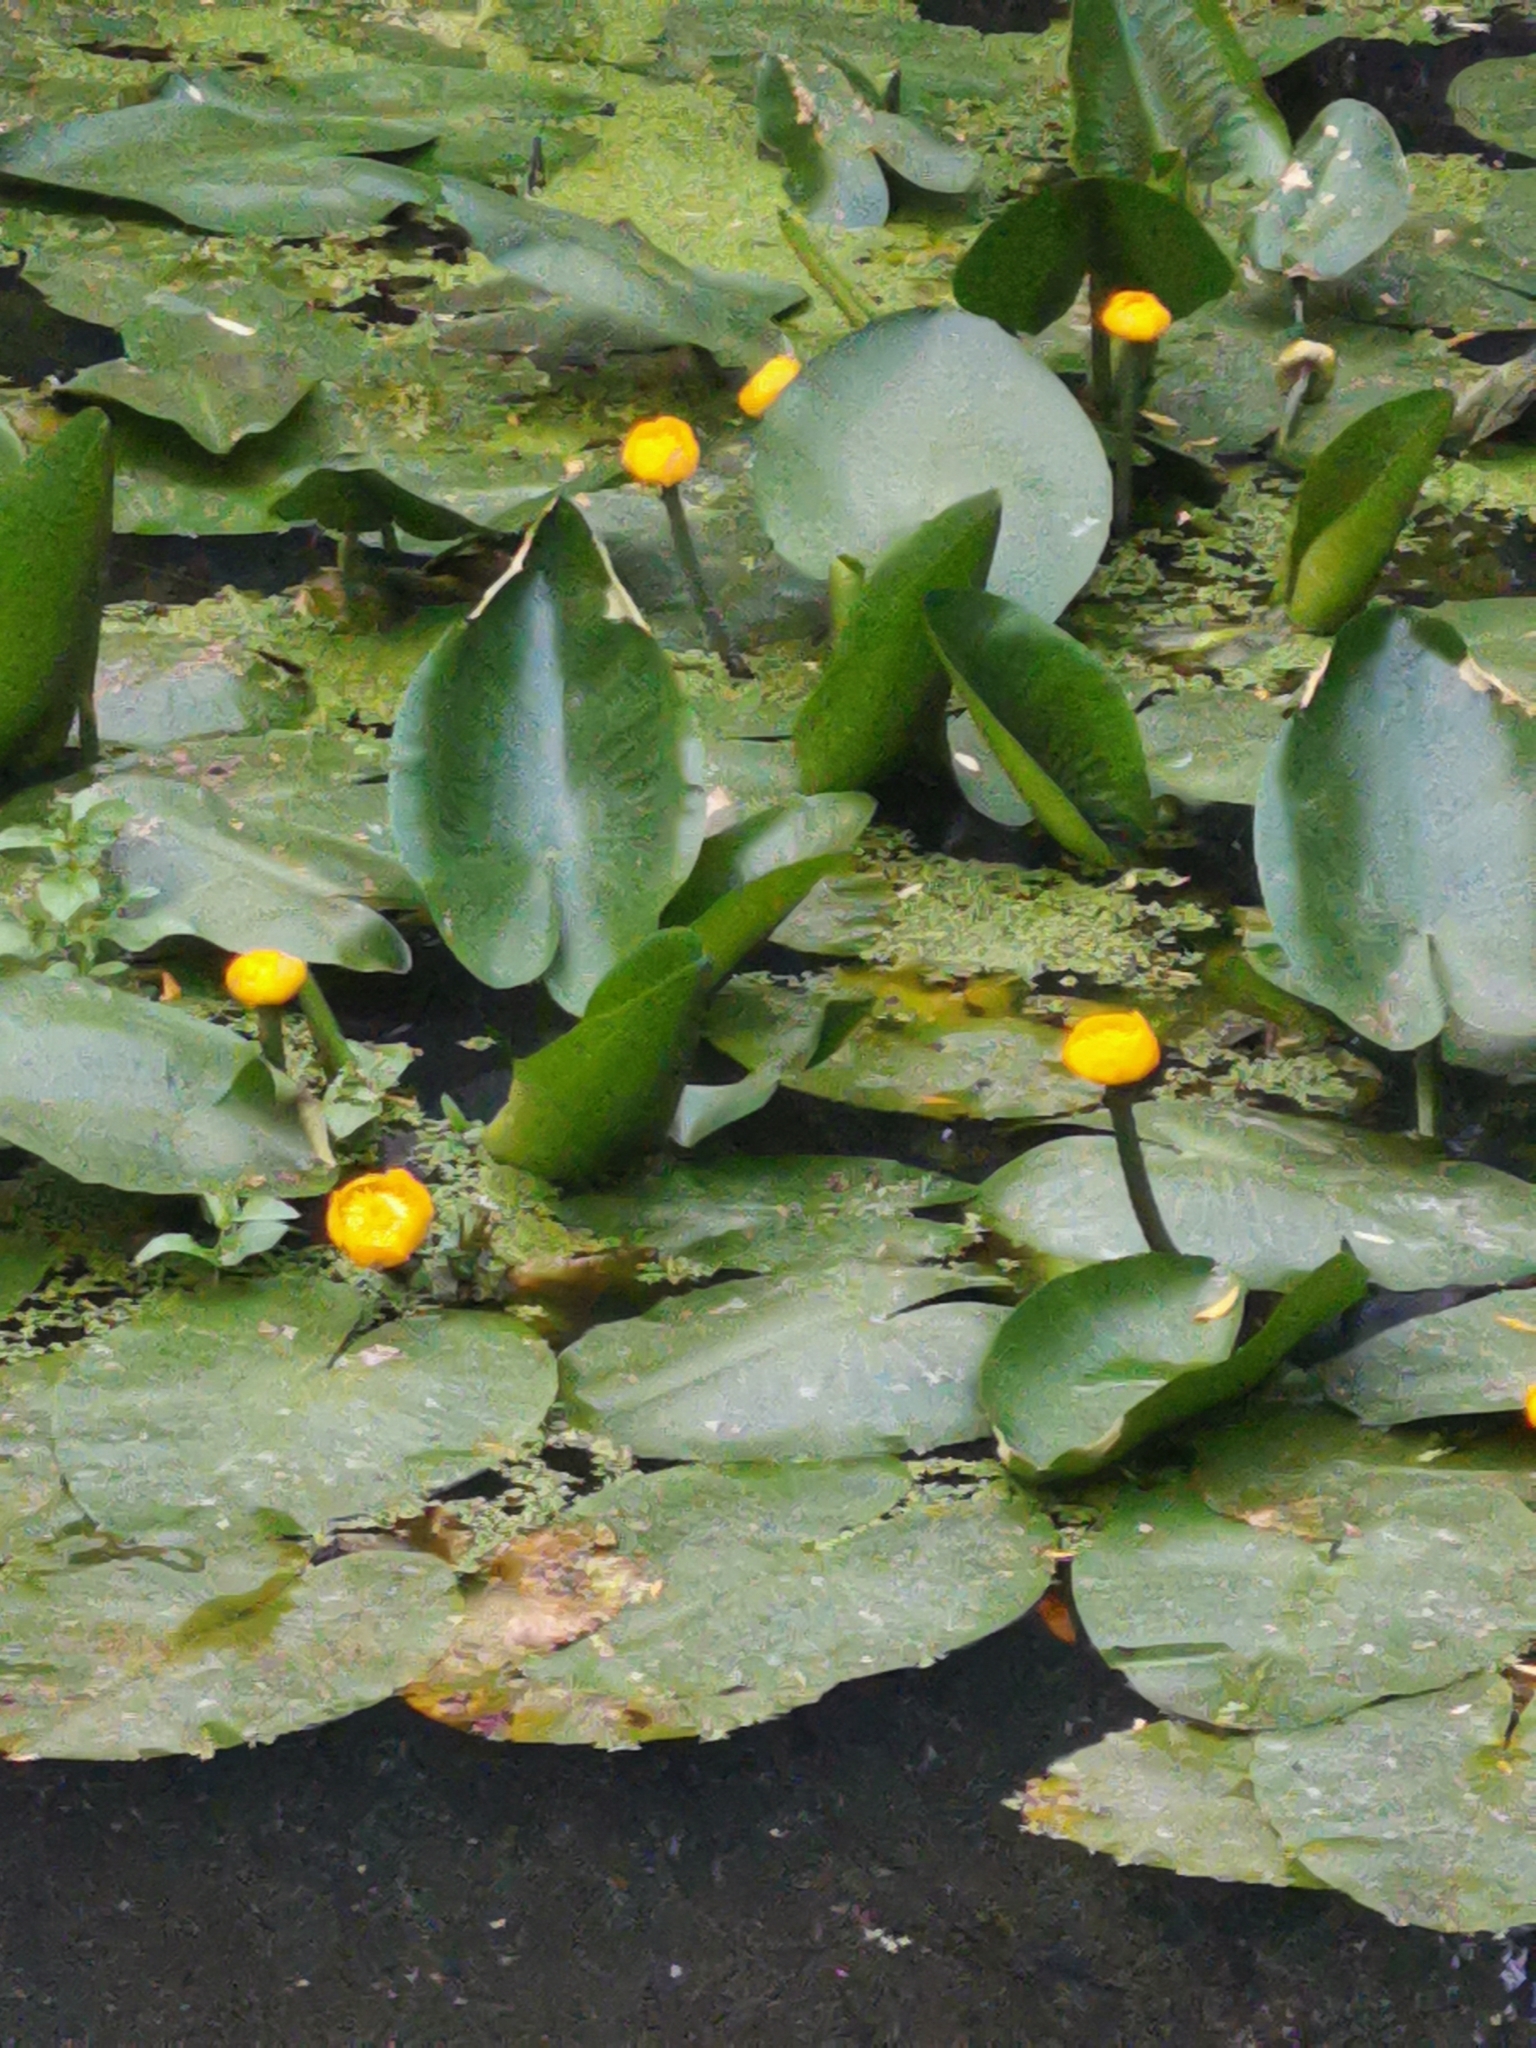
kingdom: Plantae
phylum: Tracheophyta
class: Magnoliopsida
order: Nymphaeales
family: Nymphaeaceae
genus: Nuphar
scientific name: Nuphar lutea
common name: Yellow water-lily
